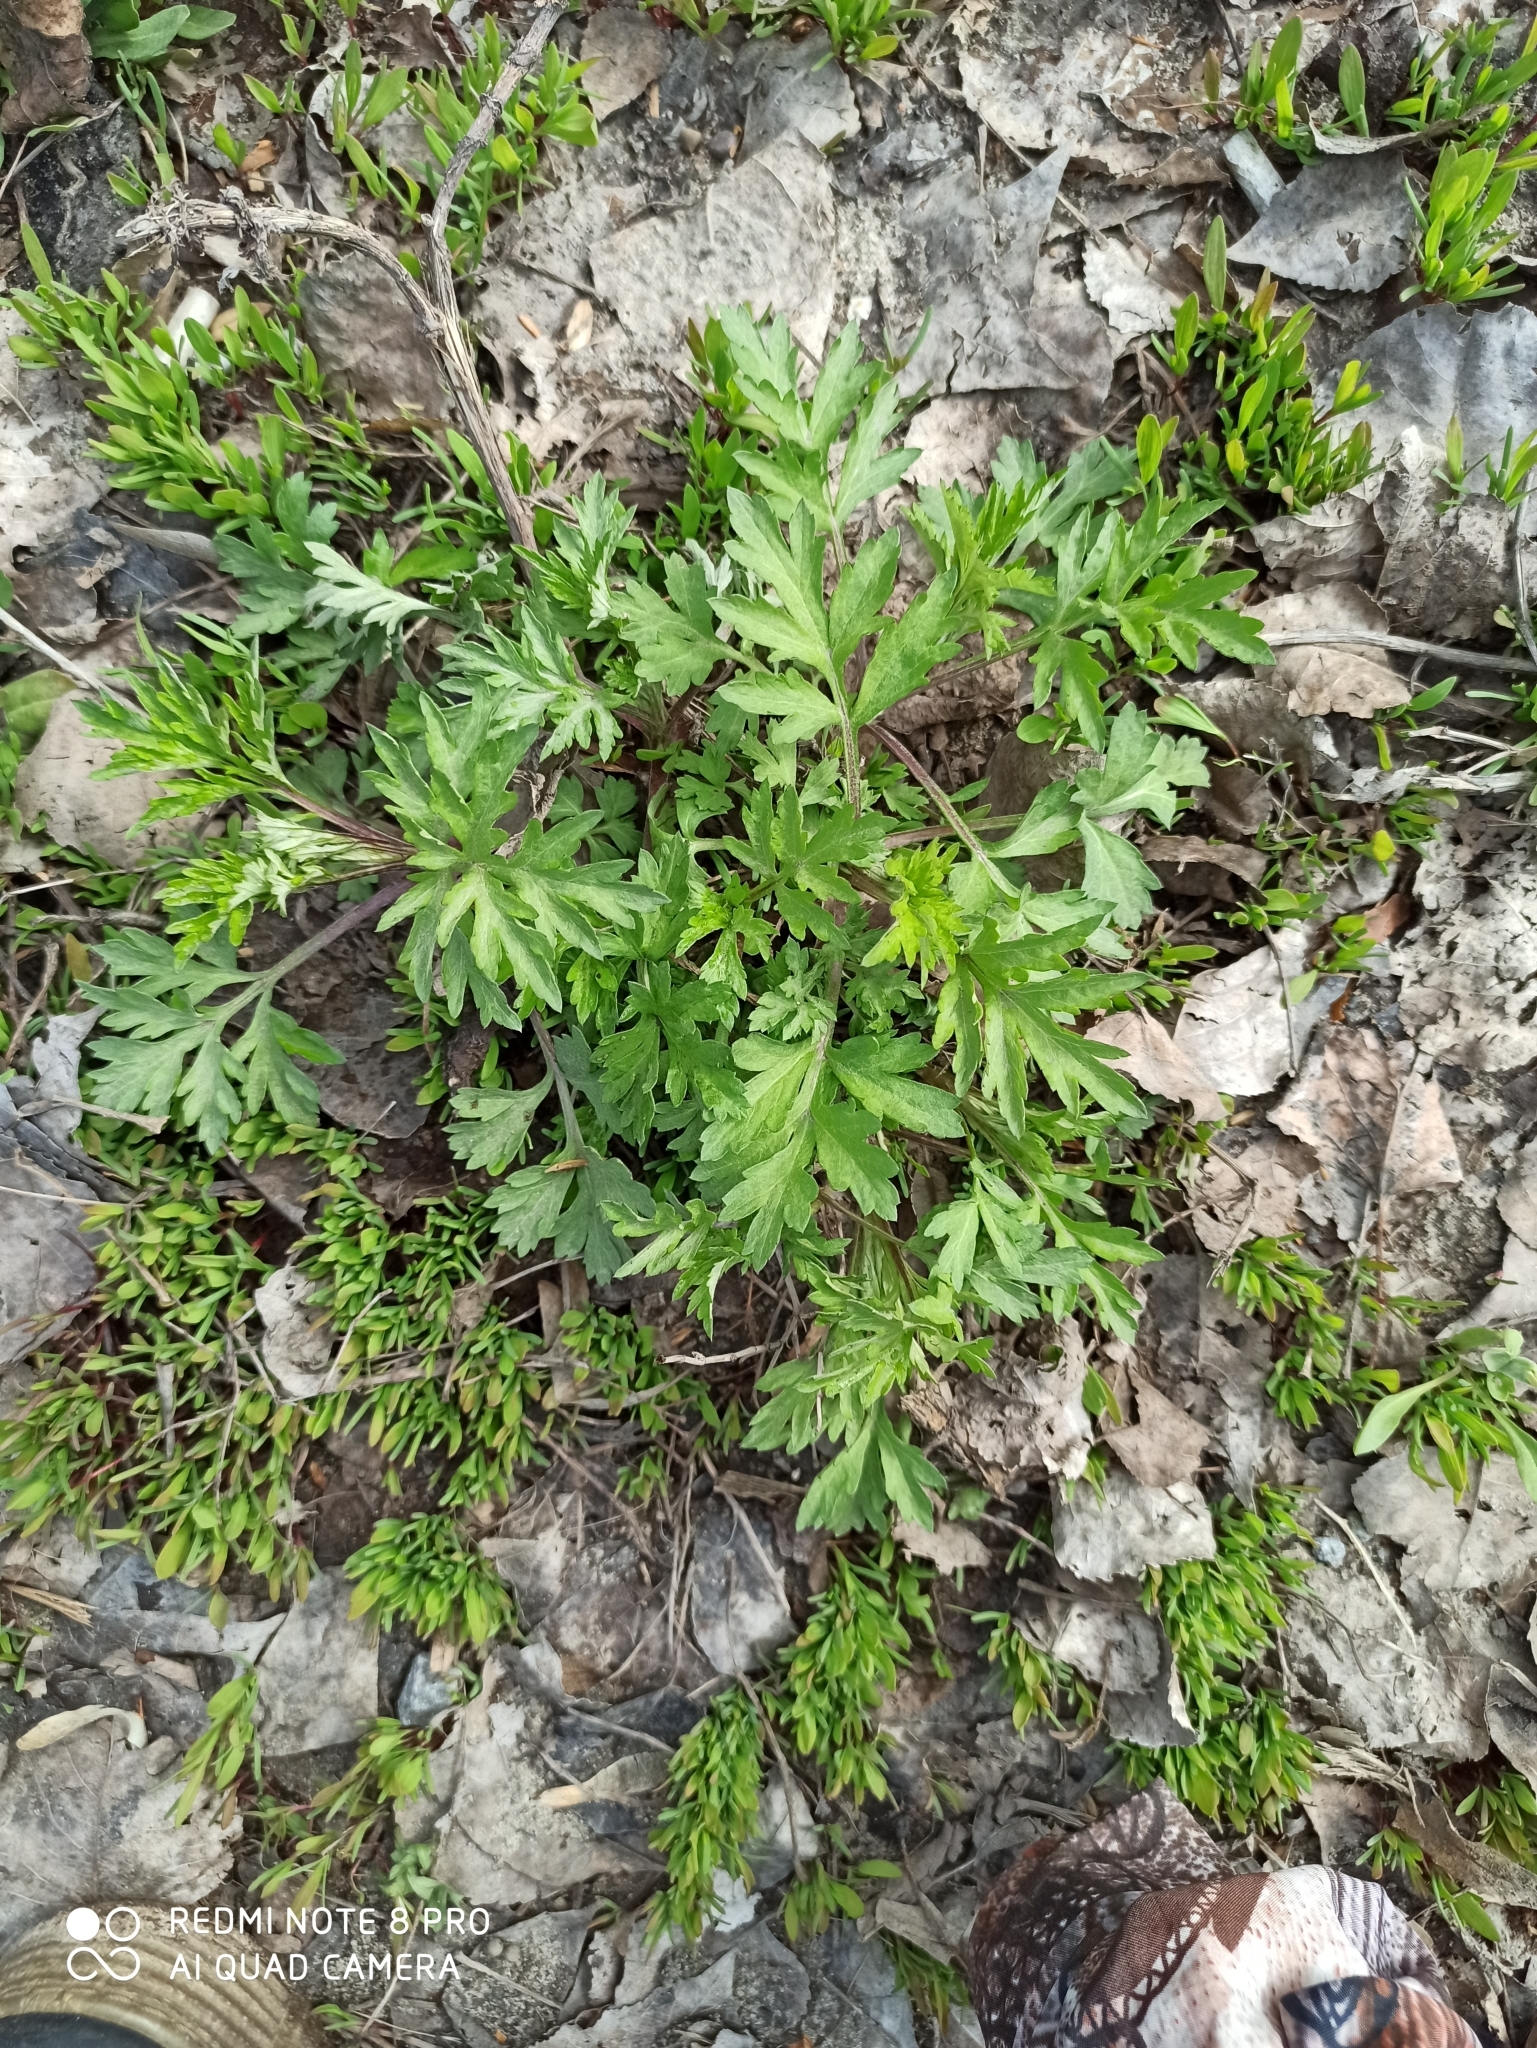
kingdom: Plantae
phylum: Tracheophyta
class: Magnoliopsida
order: Asterales
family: Asteraceae
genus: Artemisia
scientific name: Artemisia vulgaris
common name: Mugwort
